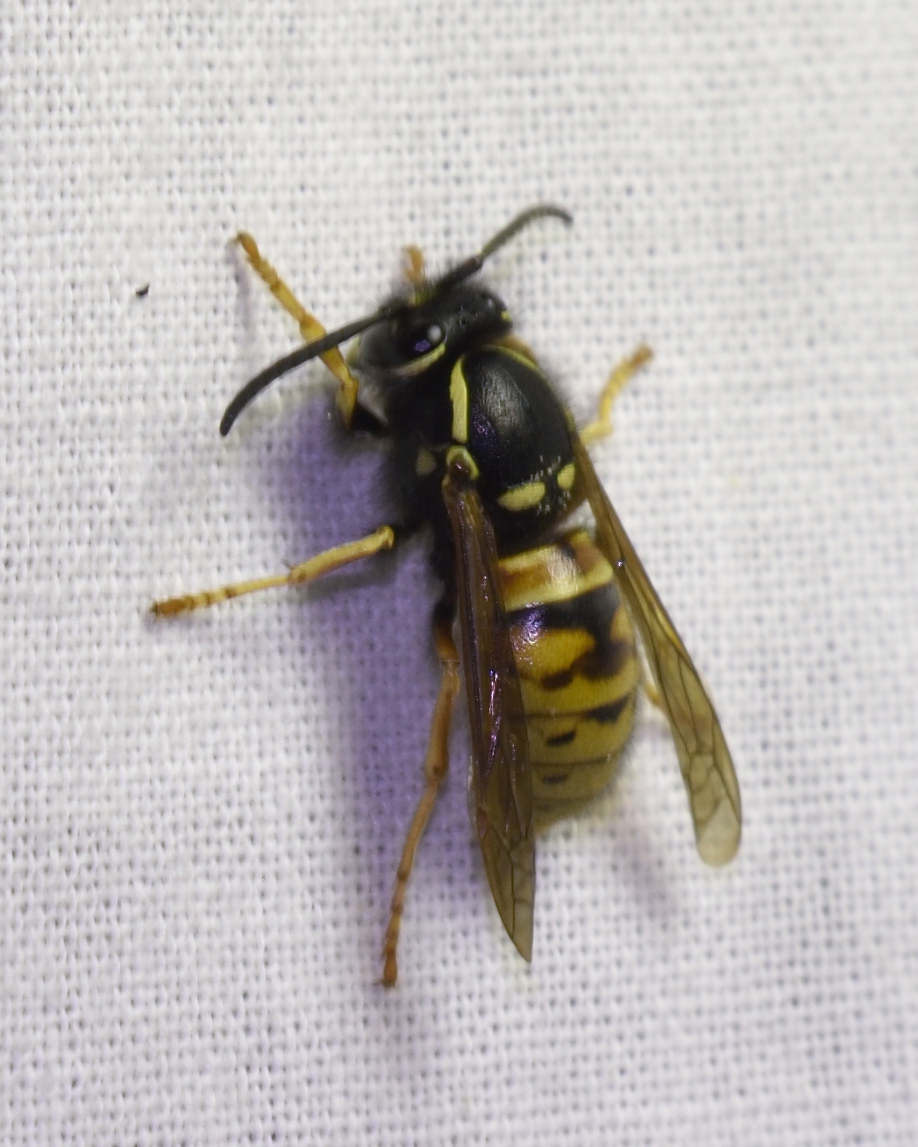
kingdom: Animalia
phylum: Arthropoda
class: Insecta
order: Hymenoptera
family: Vespidae
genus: Vespula
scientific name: Vespula rufa
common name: Red wasp
